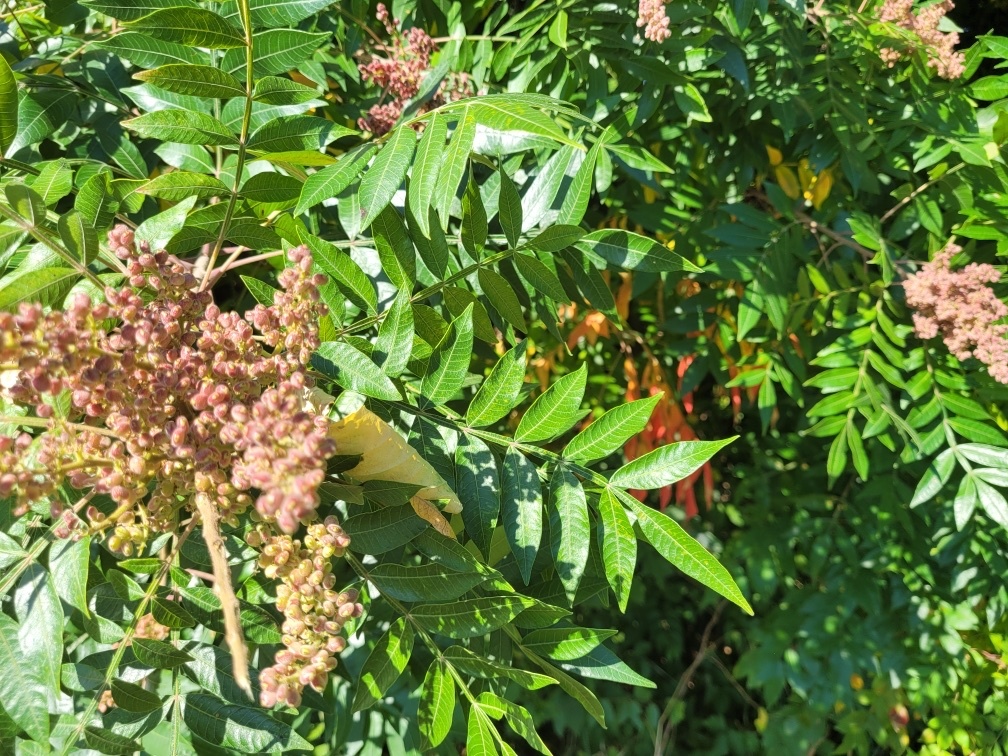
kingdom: Plantae
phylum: Tracheophyta
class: Magnoliopsida
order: Sapindales
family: Anacardiaceae
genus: Rhus
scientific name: Rhus copallina
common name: Shining sumac
